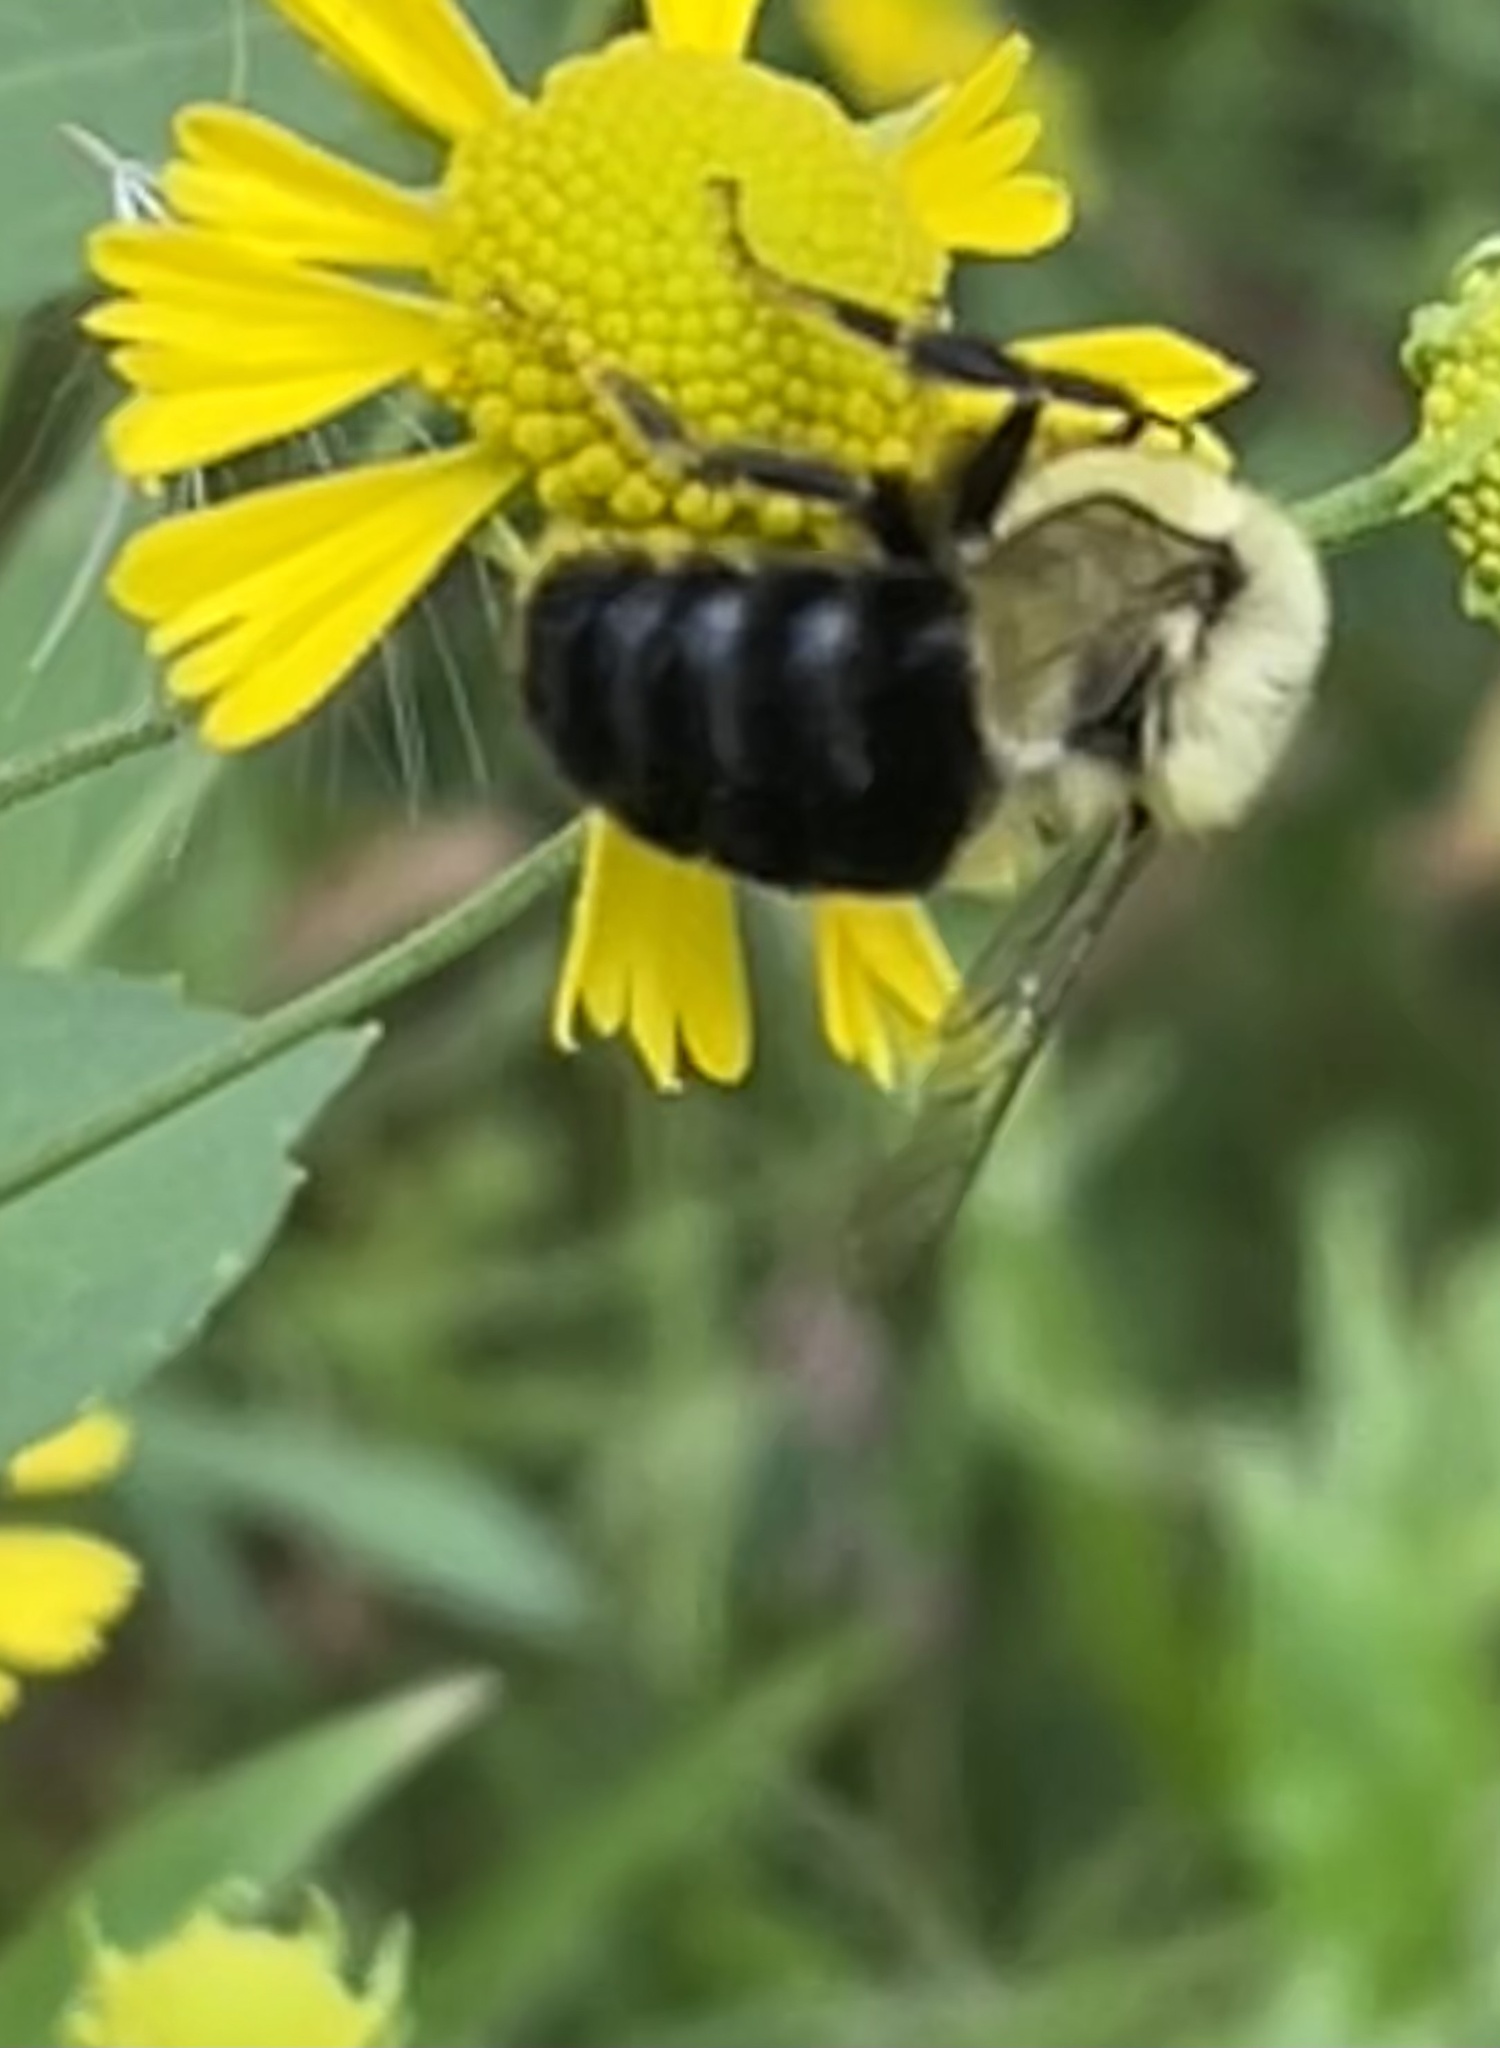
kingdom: Animalia
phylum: Arthropoda
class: Insecta
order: Hymenoptera
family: Apidae
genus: Bombus
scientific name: Bombus impatiens
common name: Common eastern bumble bee
